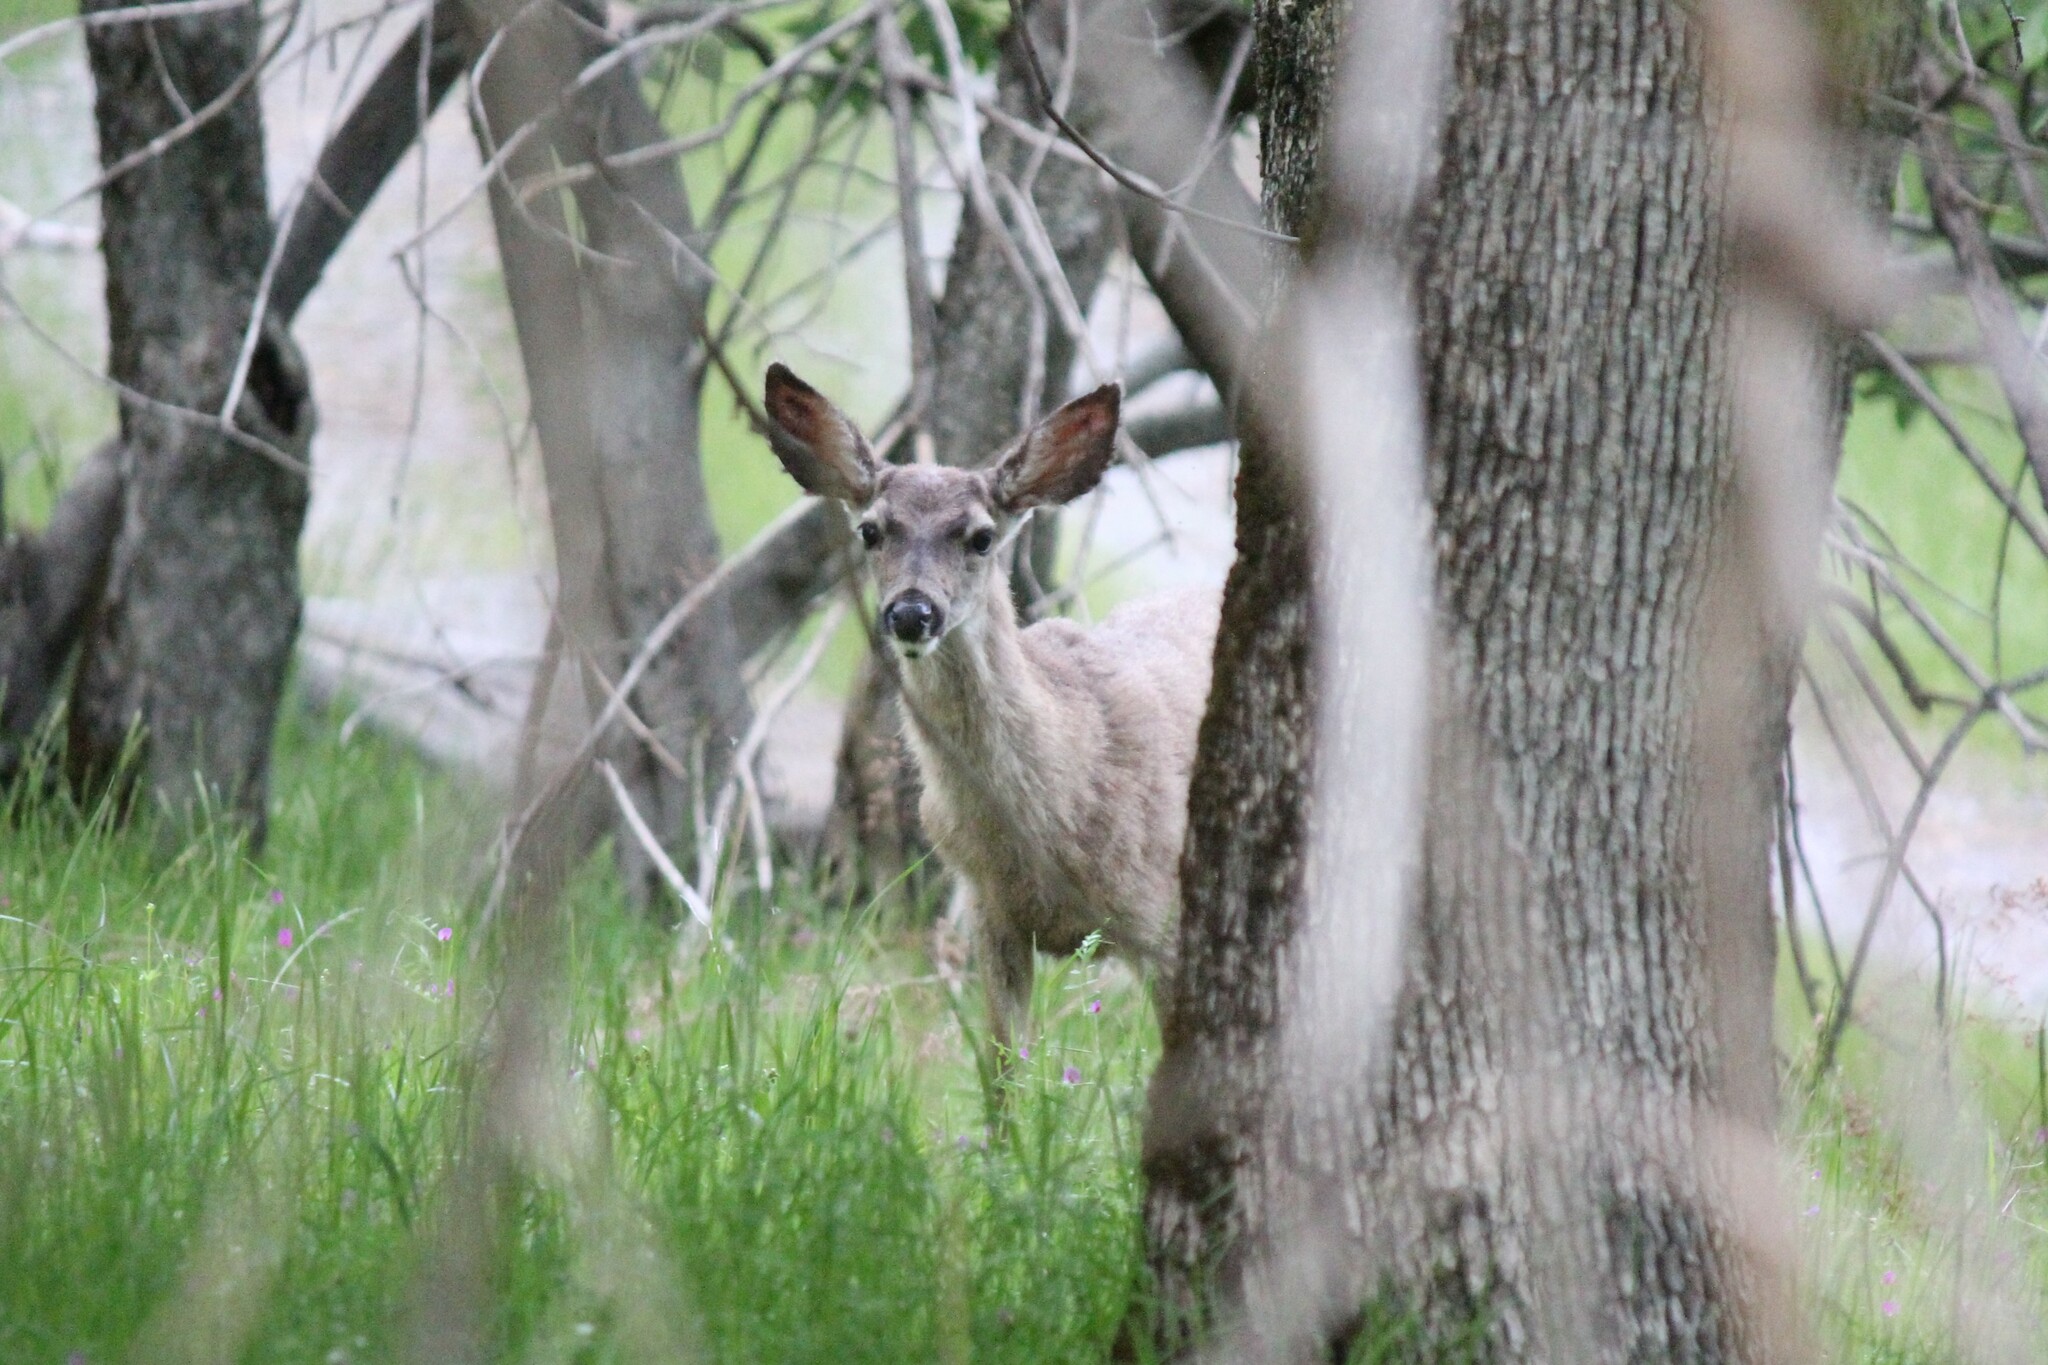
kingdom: Animalia
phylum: Chordata
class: Mammalia
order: Artiodactyla
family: Cervidae
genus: Odocoileus
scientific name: Odocoileus hemionus
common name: Mule deer
